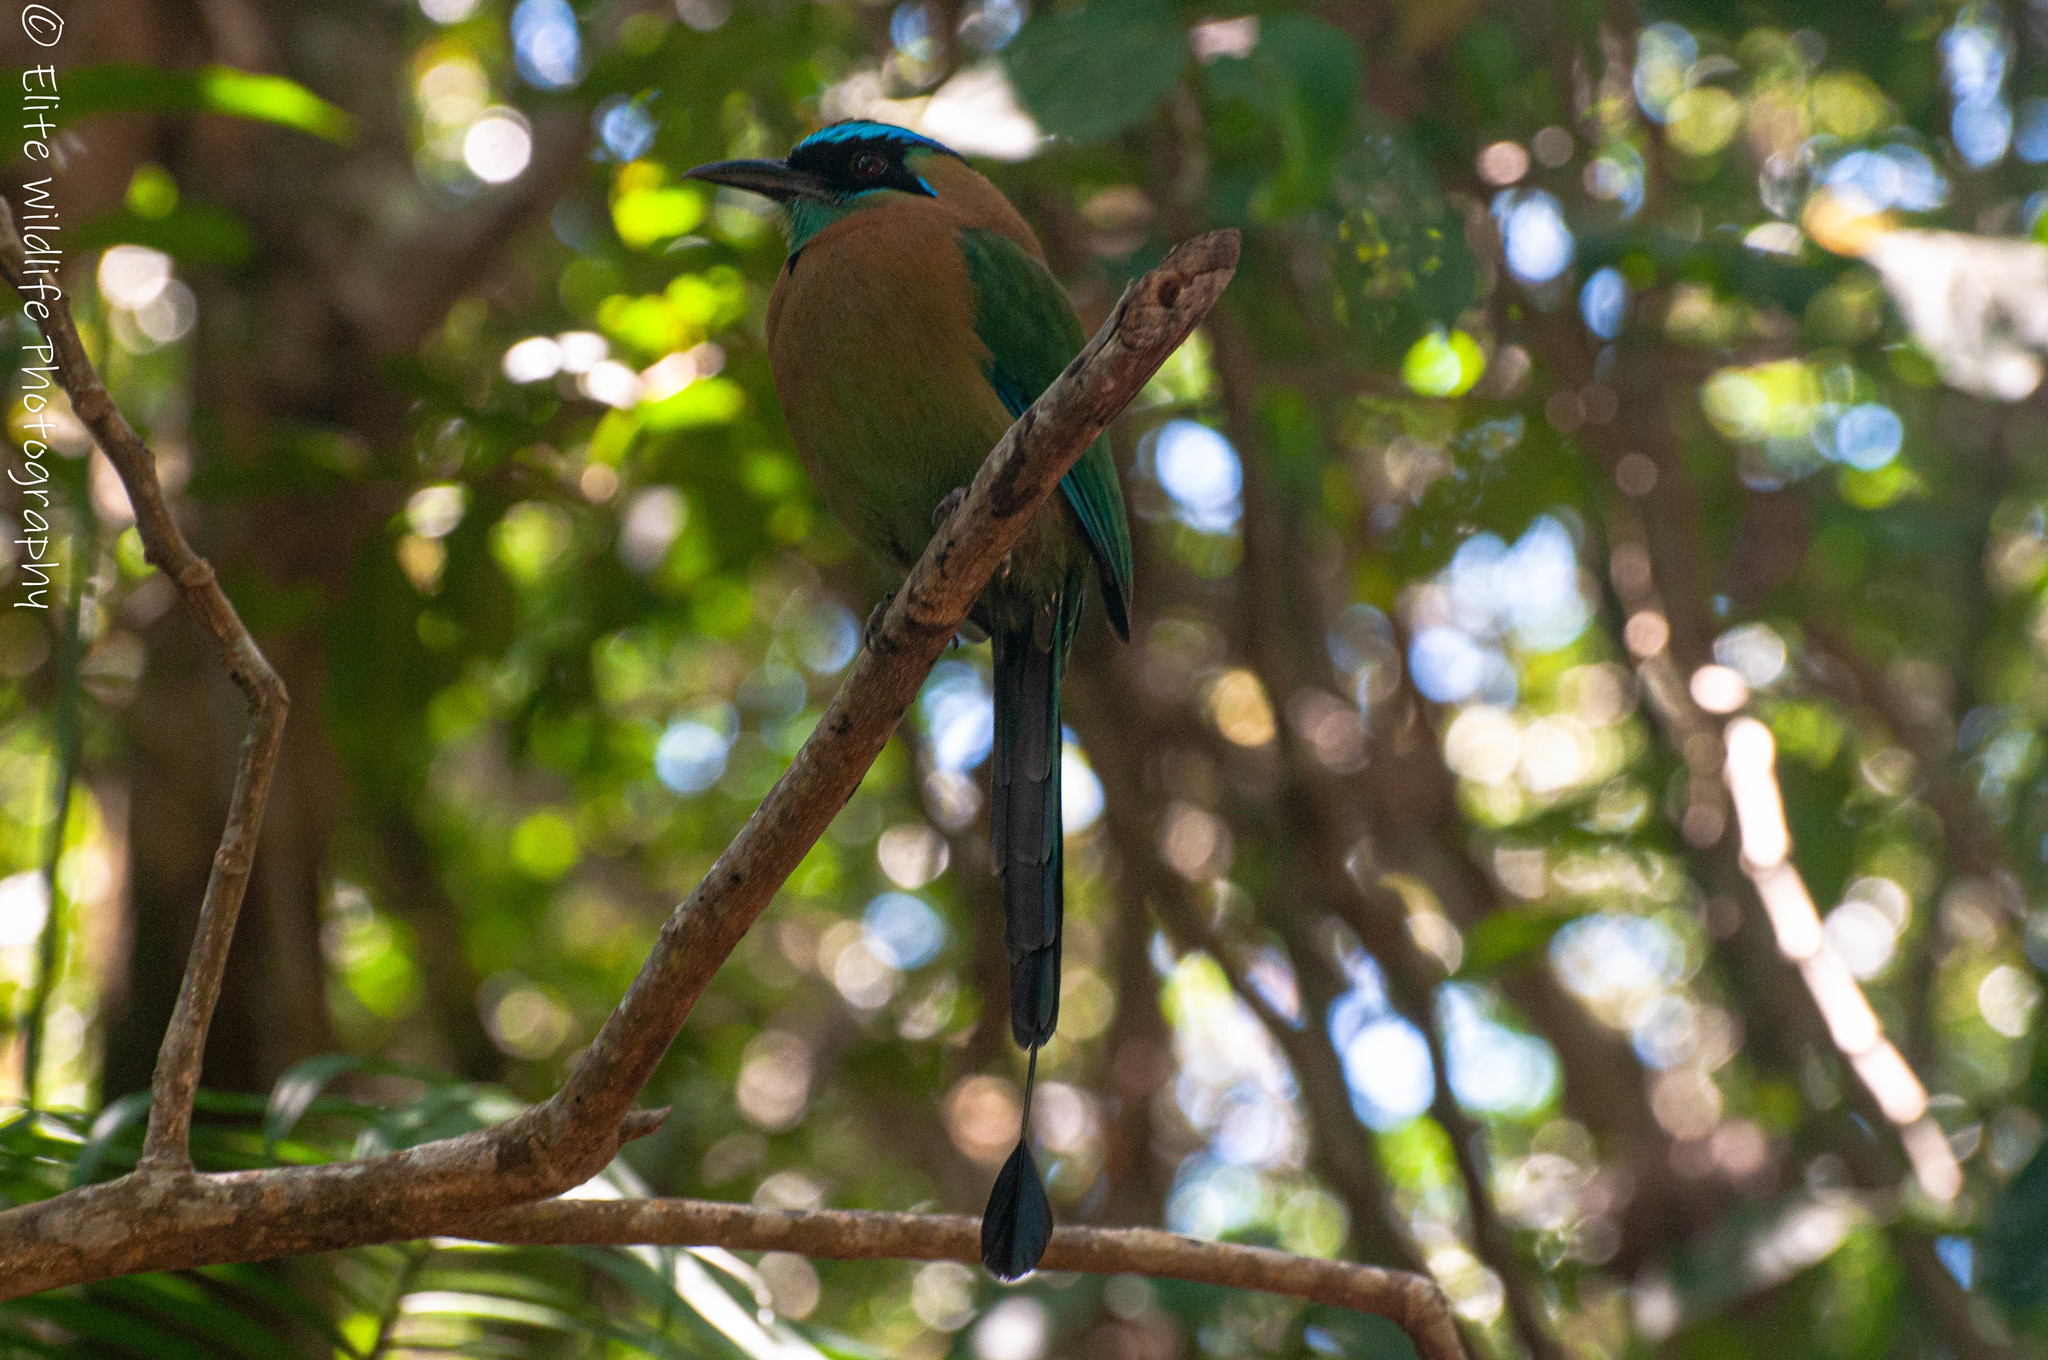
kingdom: Animalia
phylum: Chordata
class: Aves
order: Coraciiformes
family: Momotidae
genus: Momotus
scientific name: Momotus lessonii
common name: Lesson's motmot
